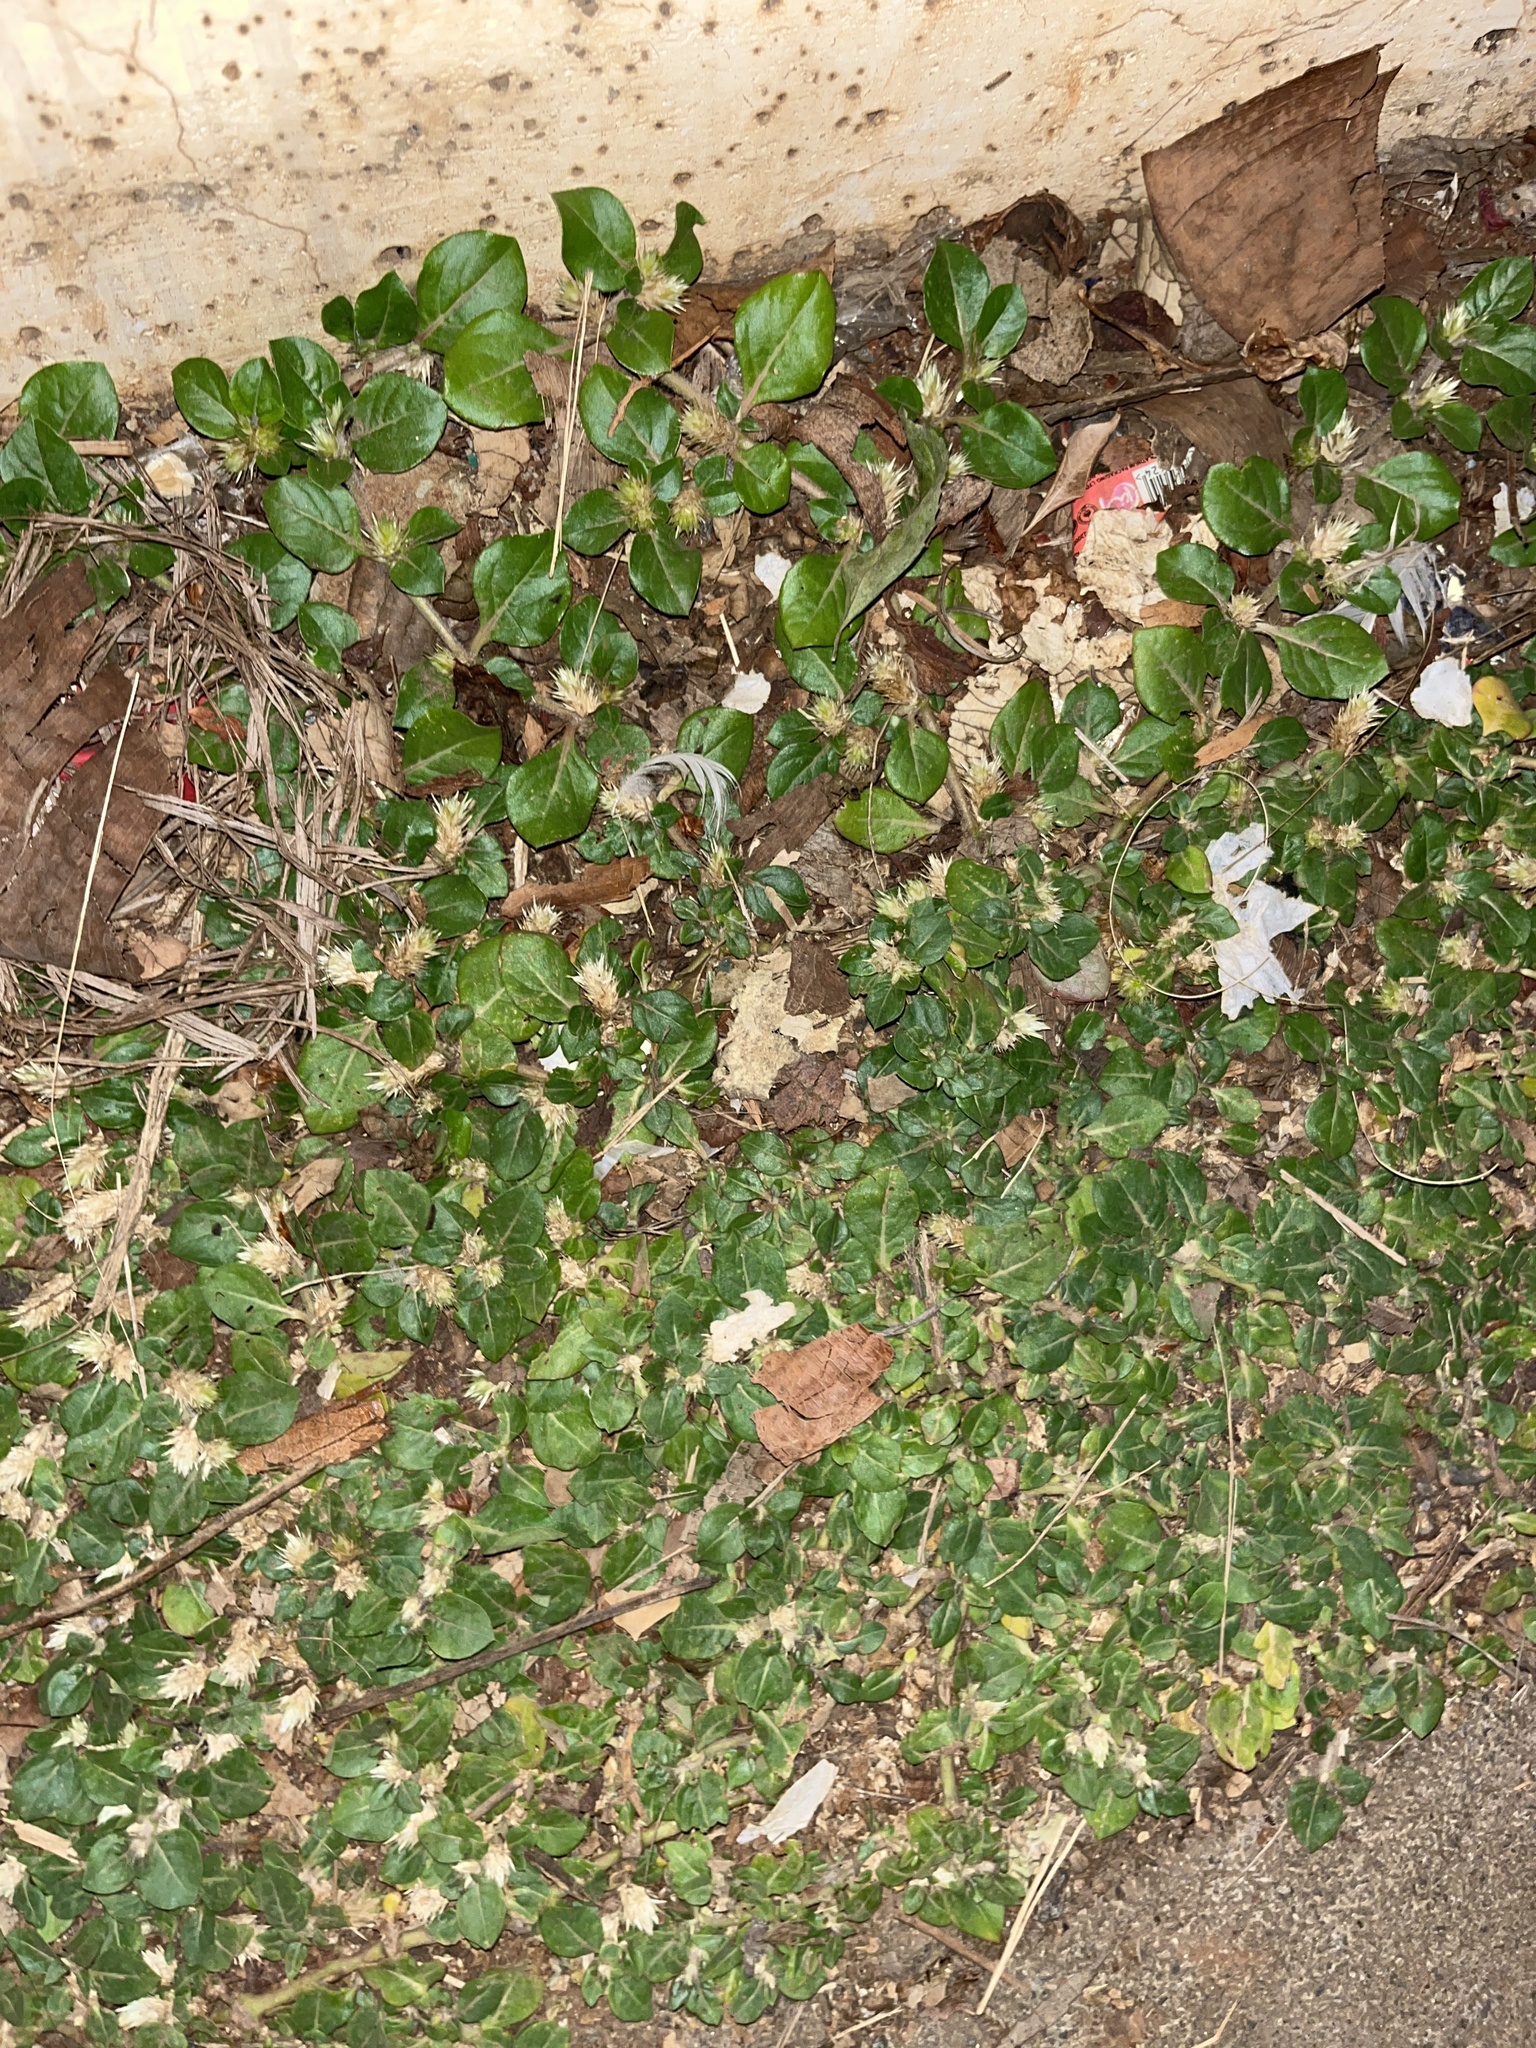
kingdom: Plantae
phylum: Tracheophyta
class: Magnoliopsida
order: Caryophyllales
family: Amaranthaceae
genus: Alternanthera
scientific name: Alternanthera pungens
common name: Khakiweed
